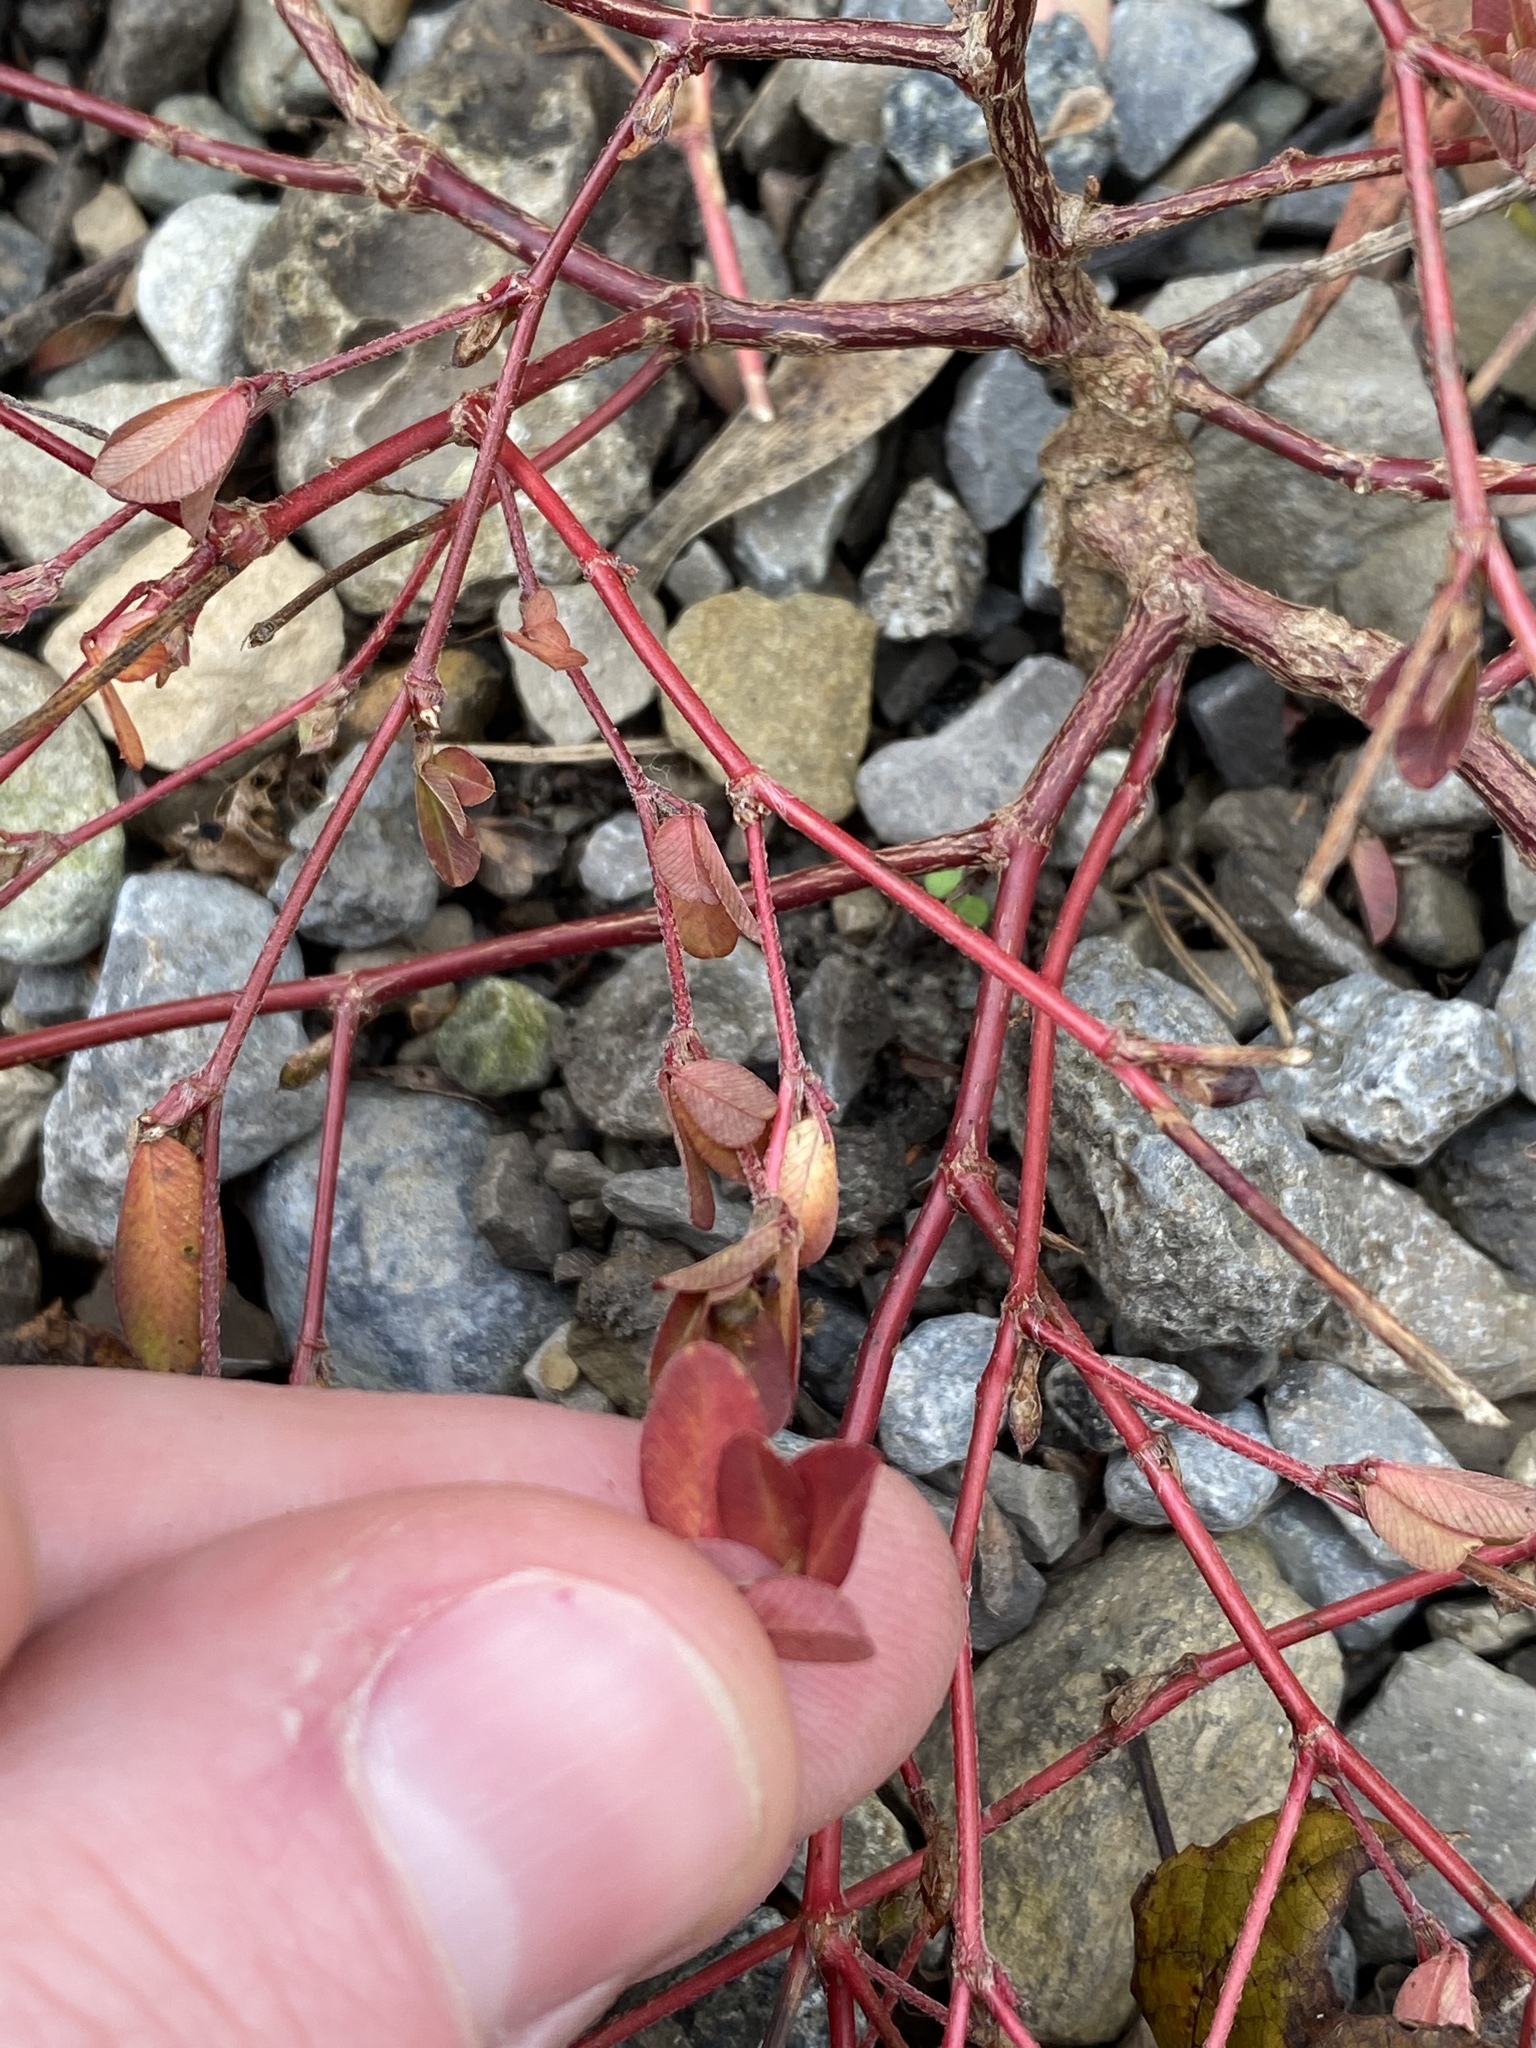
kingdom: Plantae
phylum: Tracheophyta
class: Magnoliopsida
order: Fabales
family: Fabaceae
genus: Lotus
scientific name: Lotus corniculatus
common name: Common bird's-foot-trefoil
